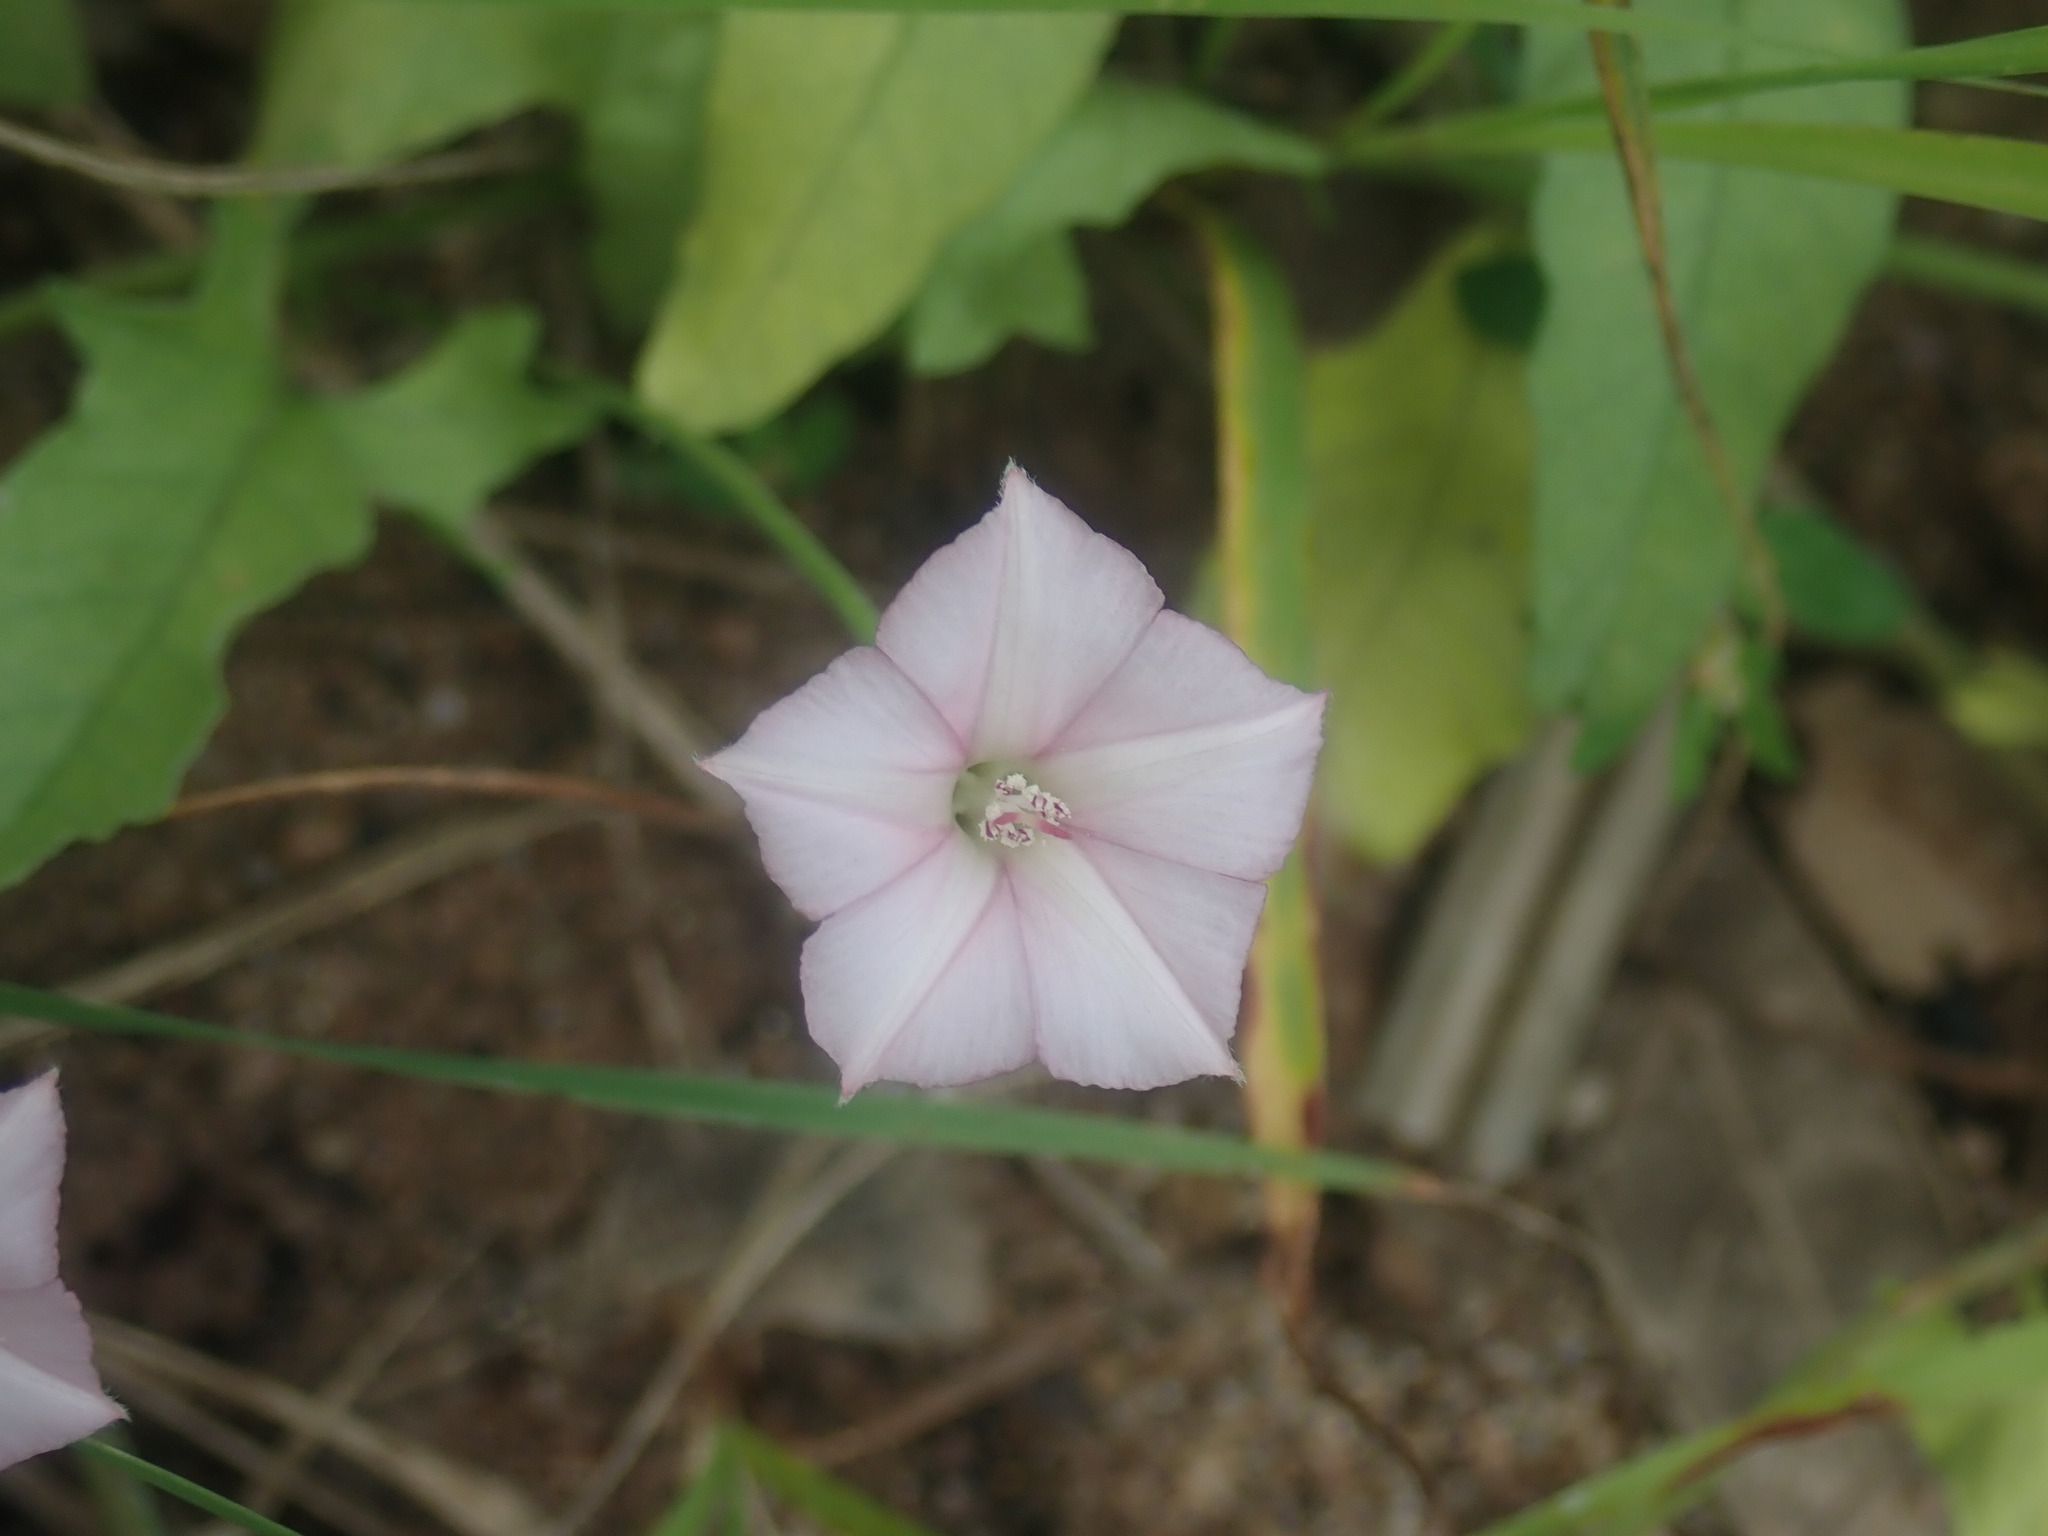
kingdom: Plantae
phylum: Tracheophyta
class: Magnoliopsida
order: Solanales
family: Convolvulaceae
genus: Convolvulus
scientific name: Convolvulus equitans
